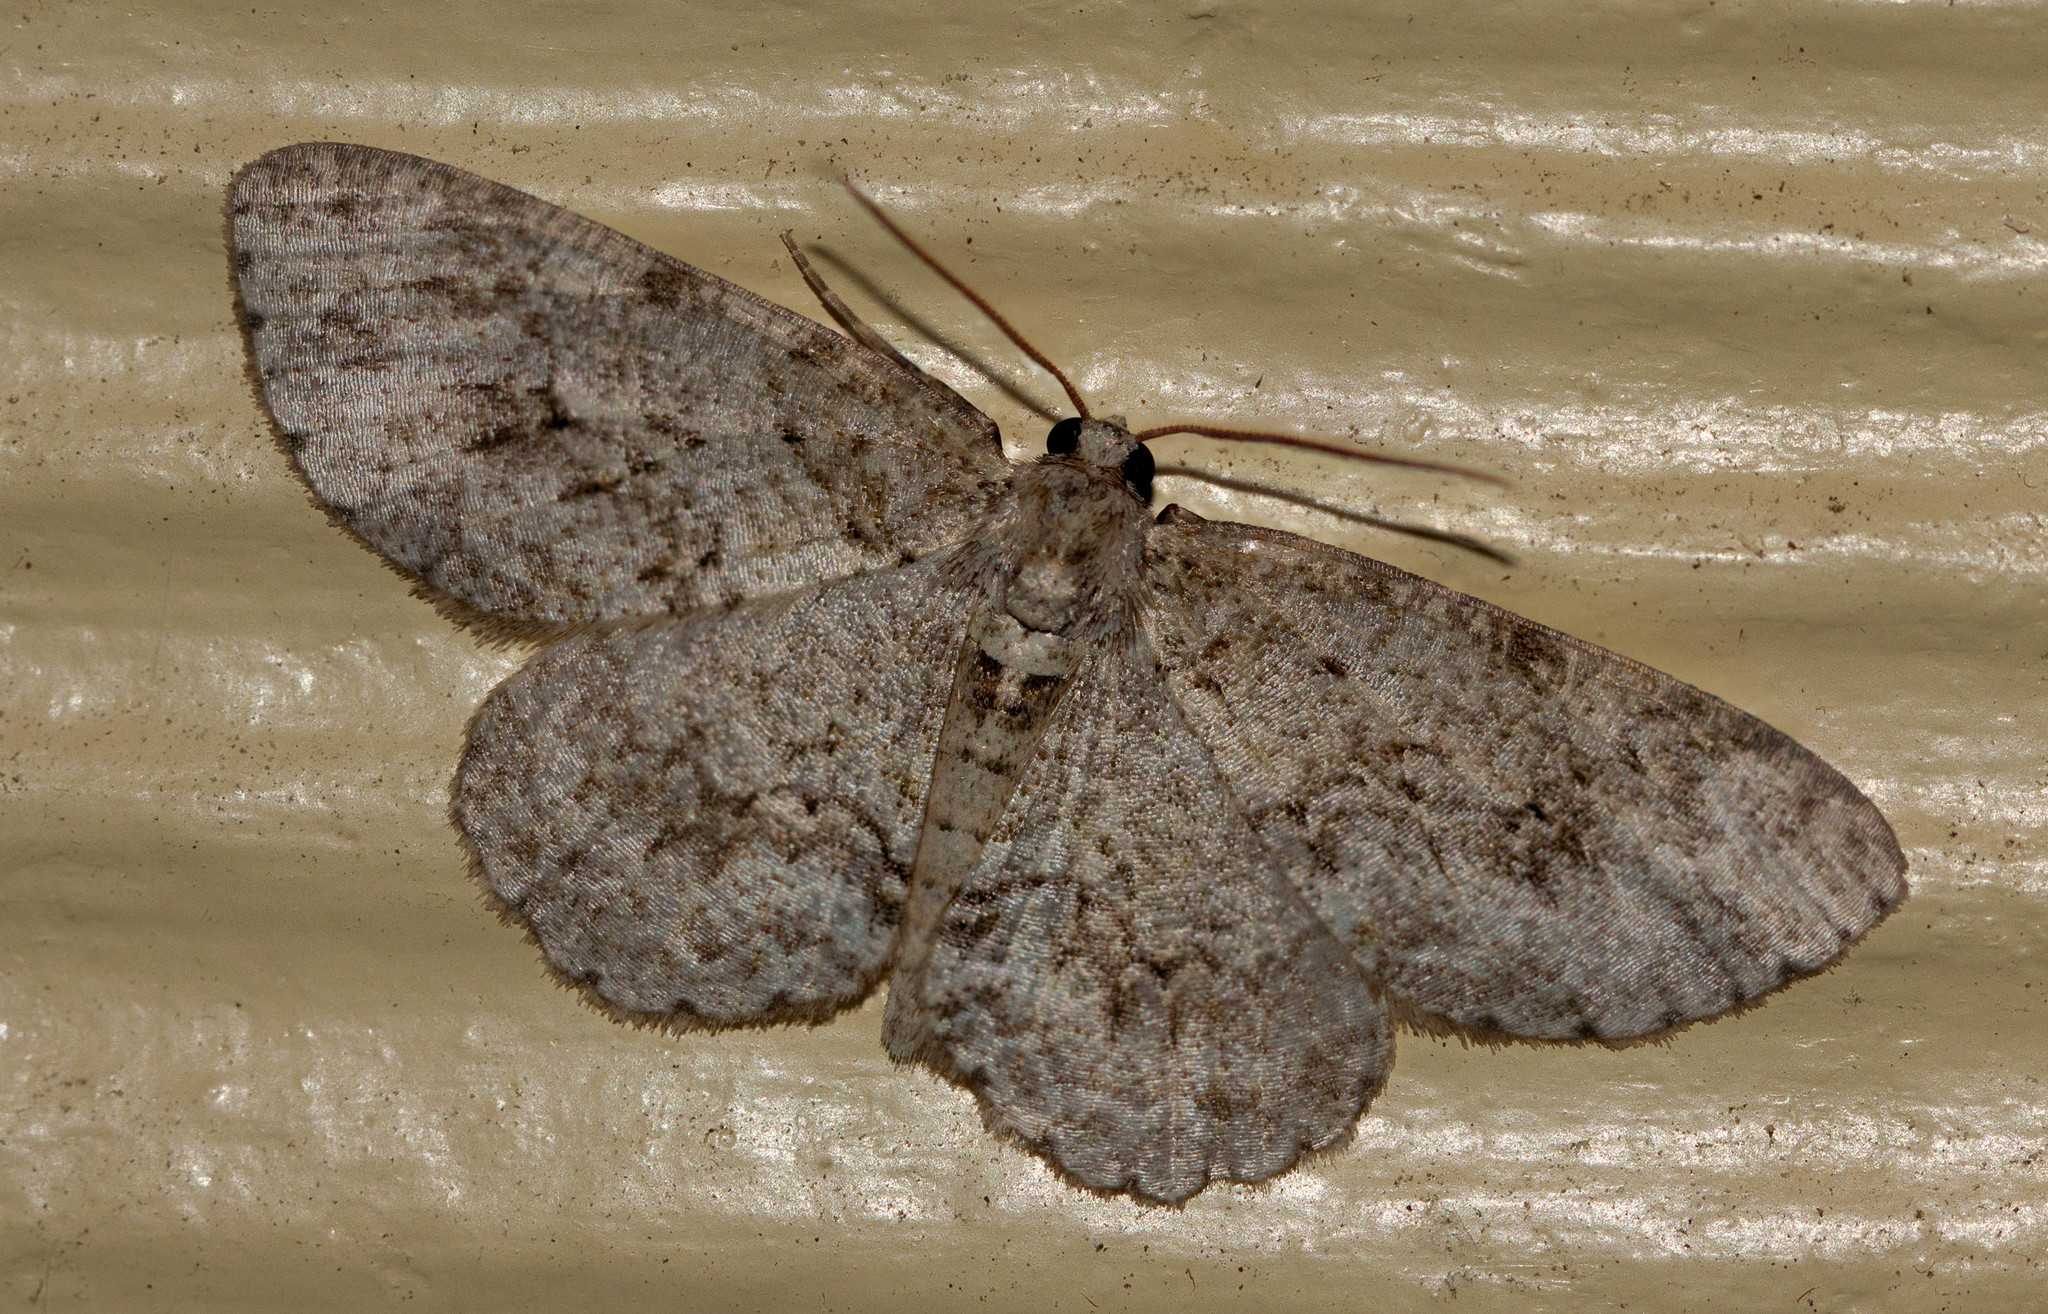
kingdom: Animalia
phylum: Arthropoda
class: Insecta
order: Lepidoptera
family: Geometridae
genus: Ectropis
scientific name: Ectropis crepuscularia
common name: Engrailed
